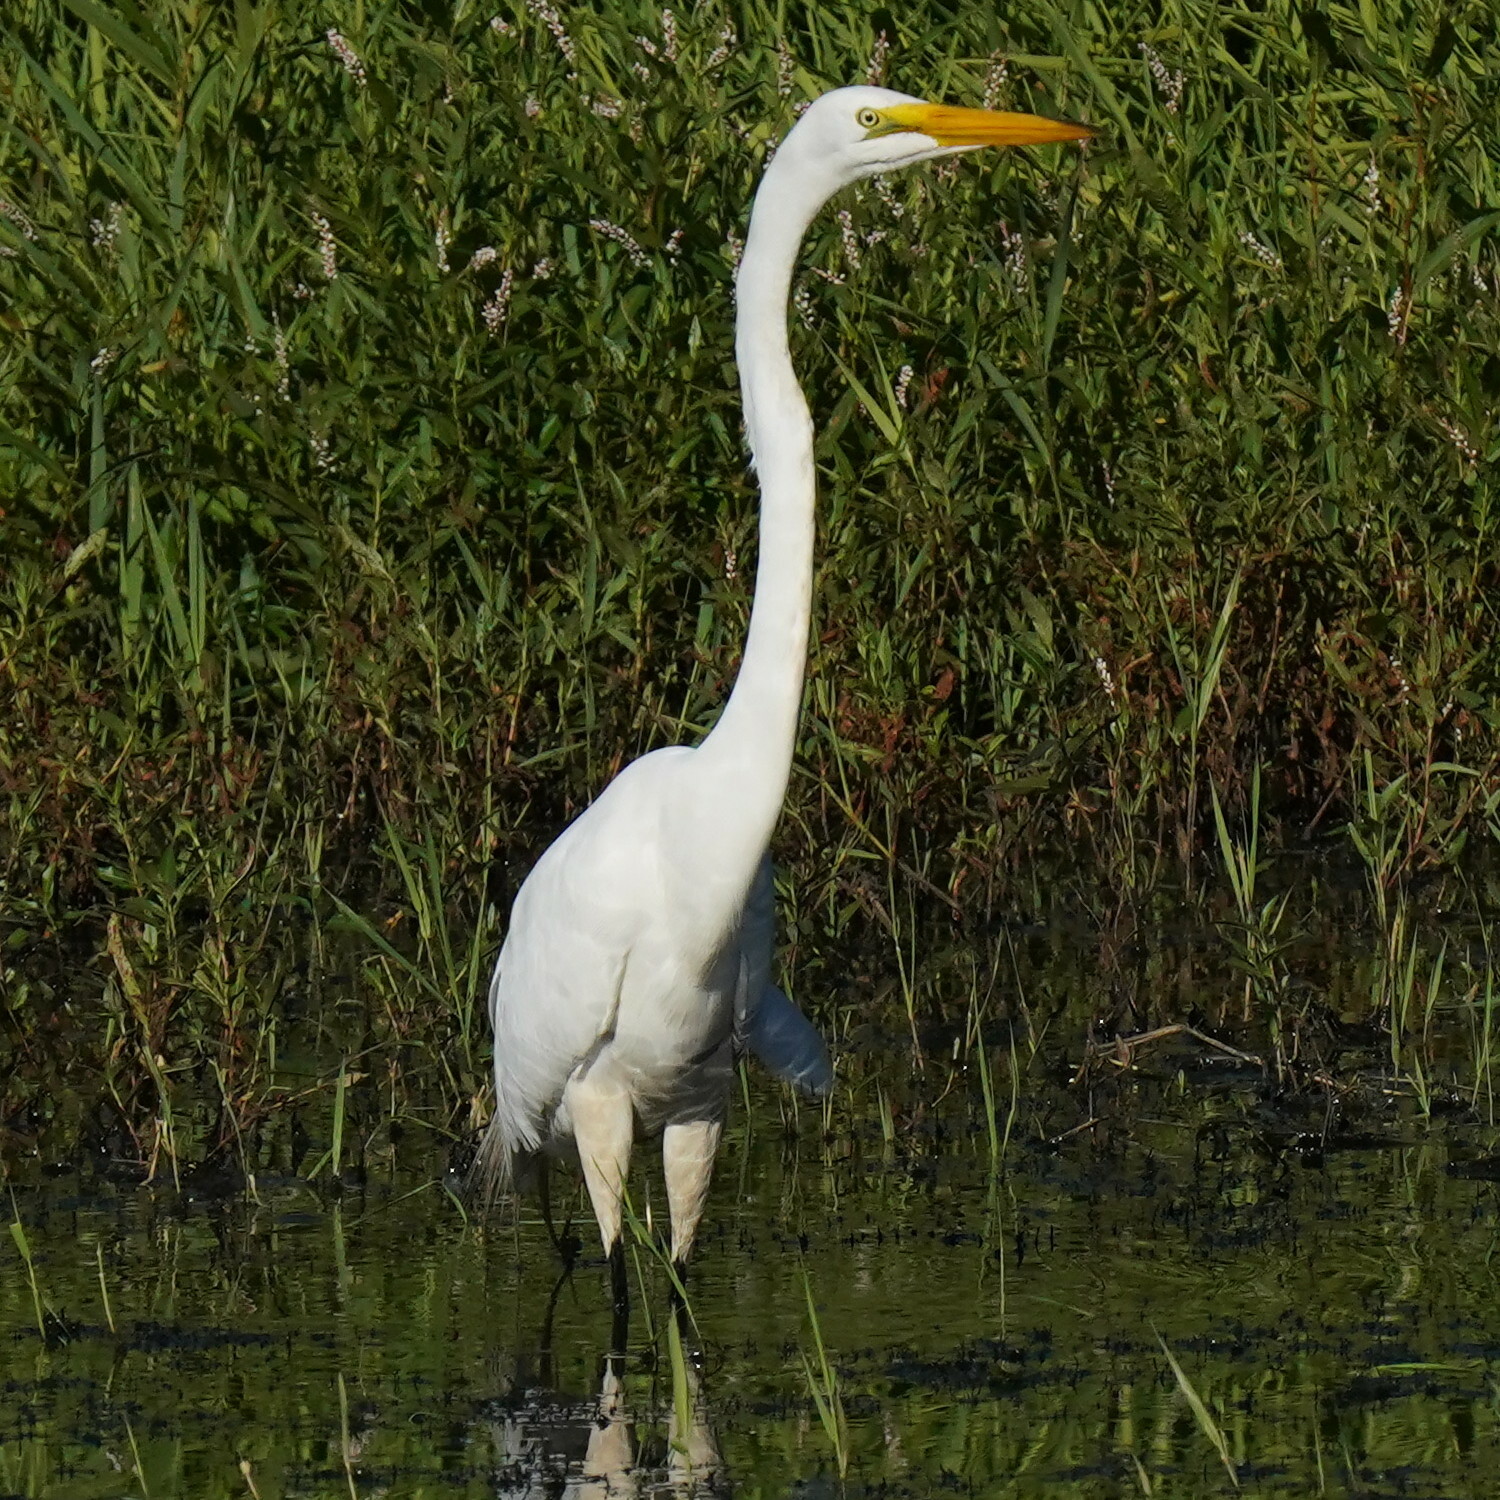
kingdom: Animalia
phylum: Chordata
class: Aves
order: Pelecaniformes
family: Ardeidae
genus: Ardea
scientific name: Ardea alba
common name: Great egret
